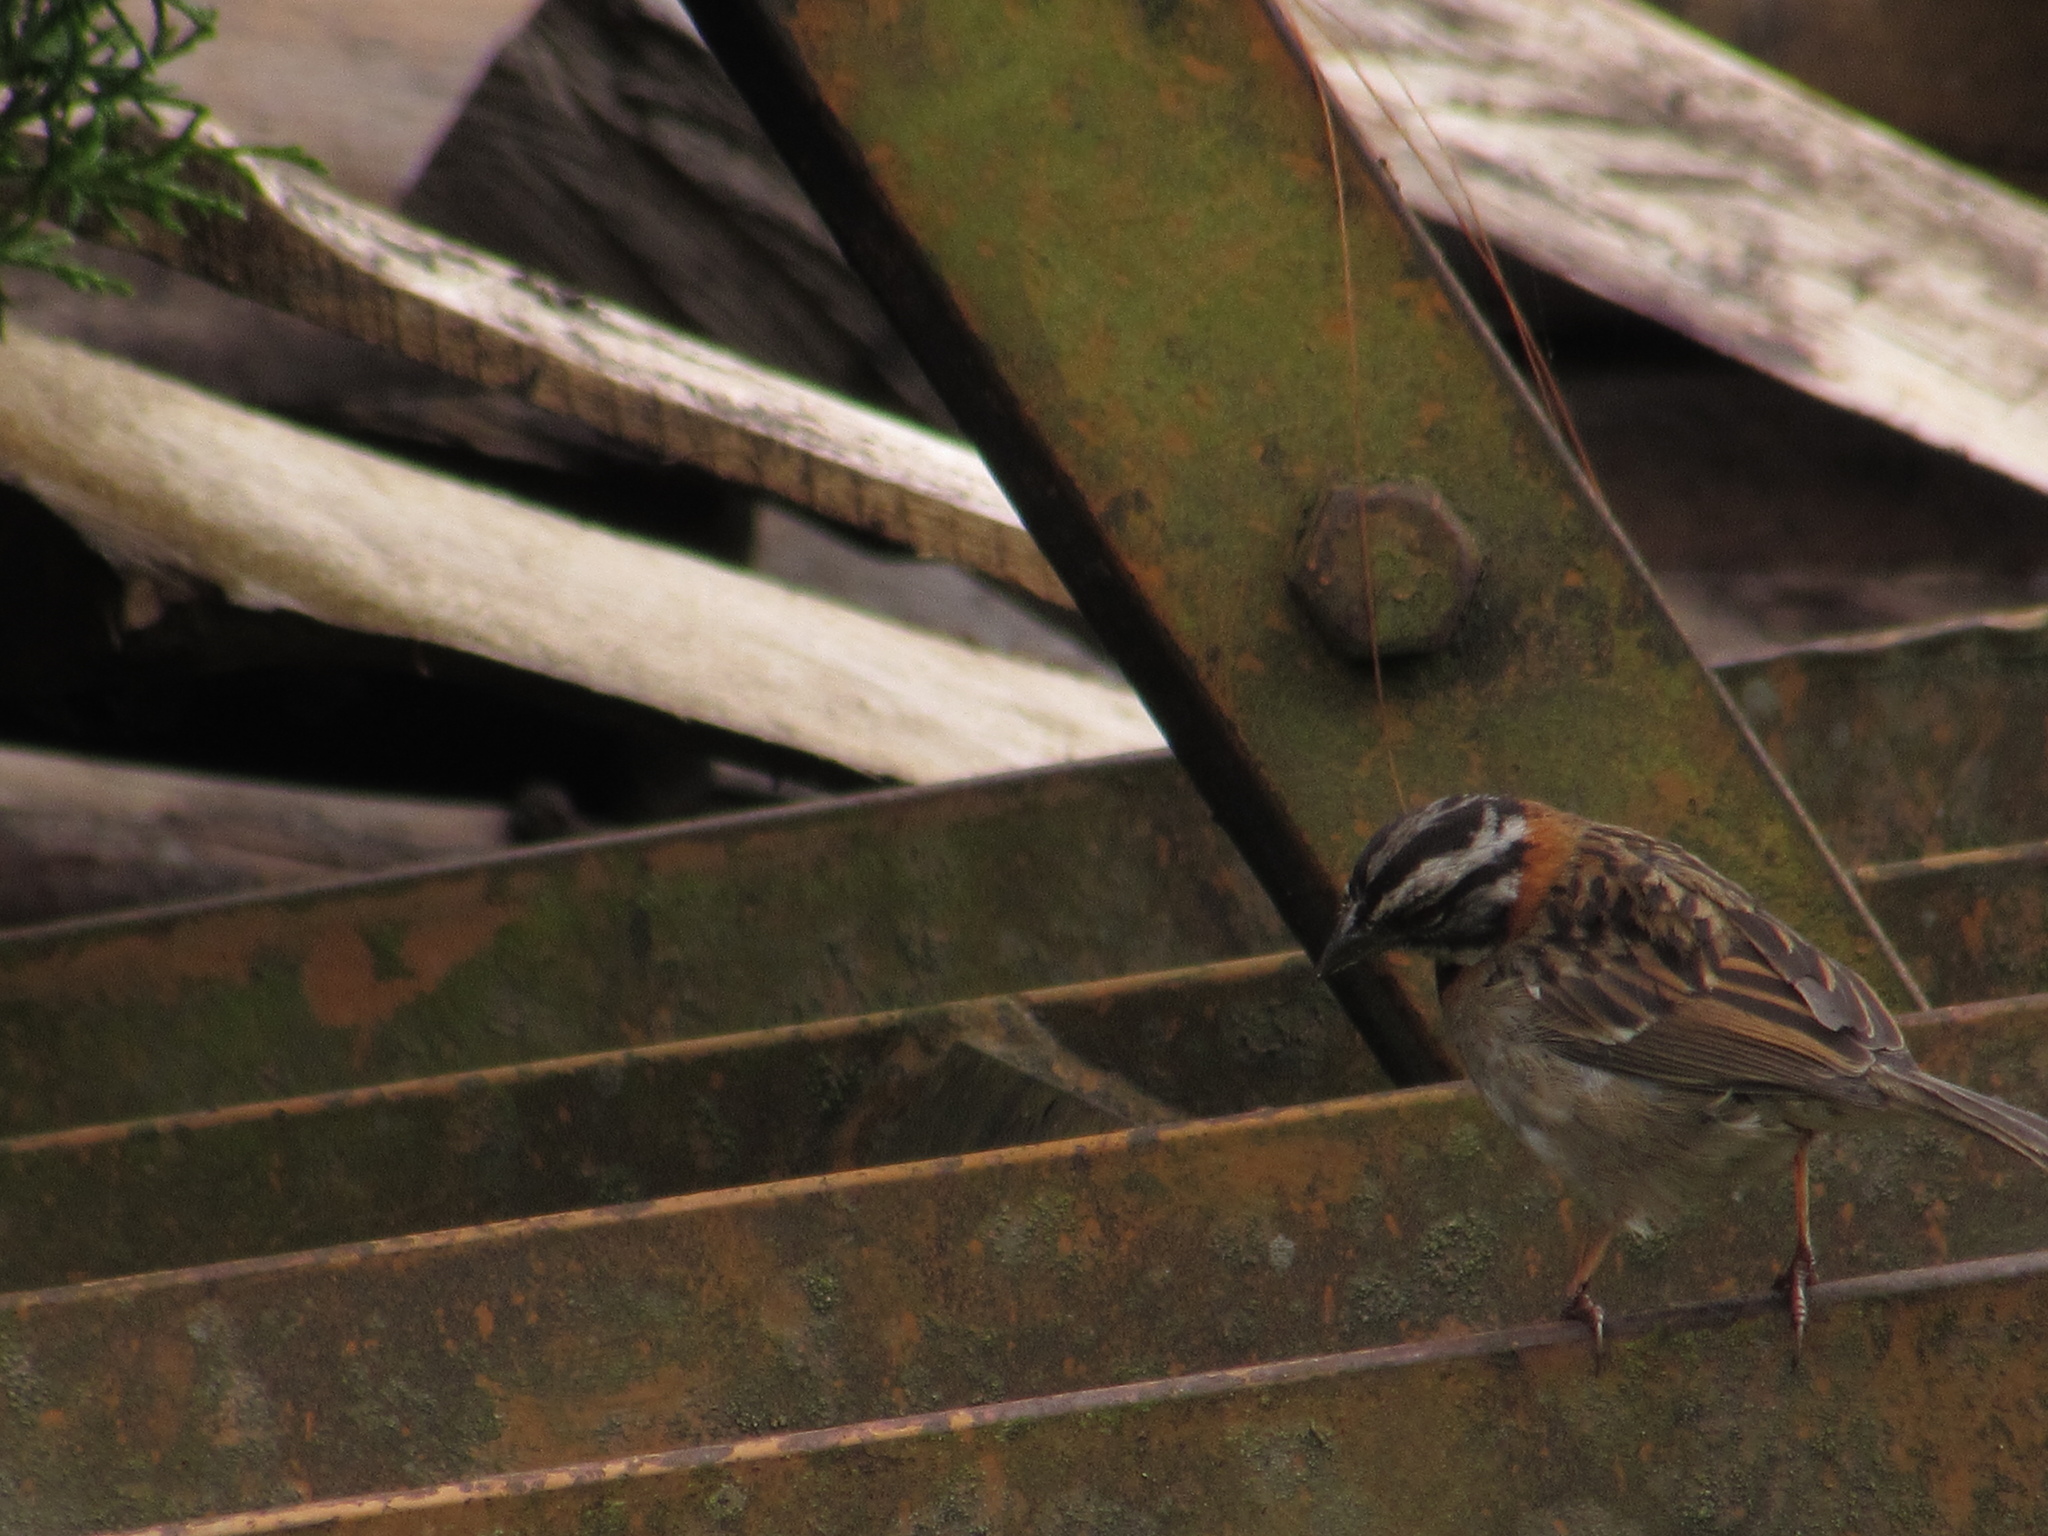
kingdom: Animalia
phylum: Chordata
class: Aves
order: Passeriformes
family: Passerellidae
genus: Zonotrichia
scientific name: Zonotrichia capensis
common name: Rufous-collared sparrow
